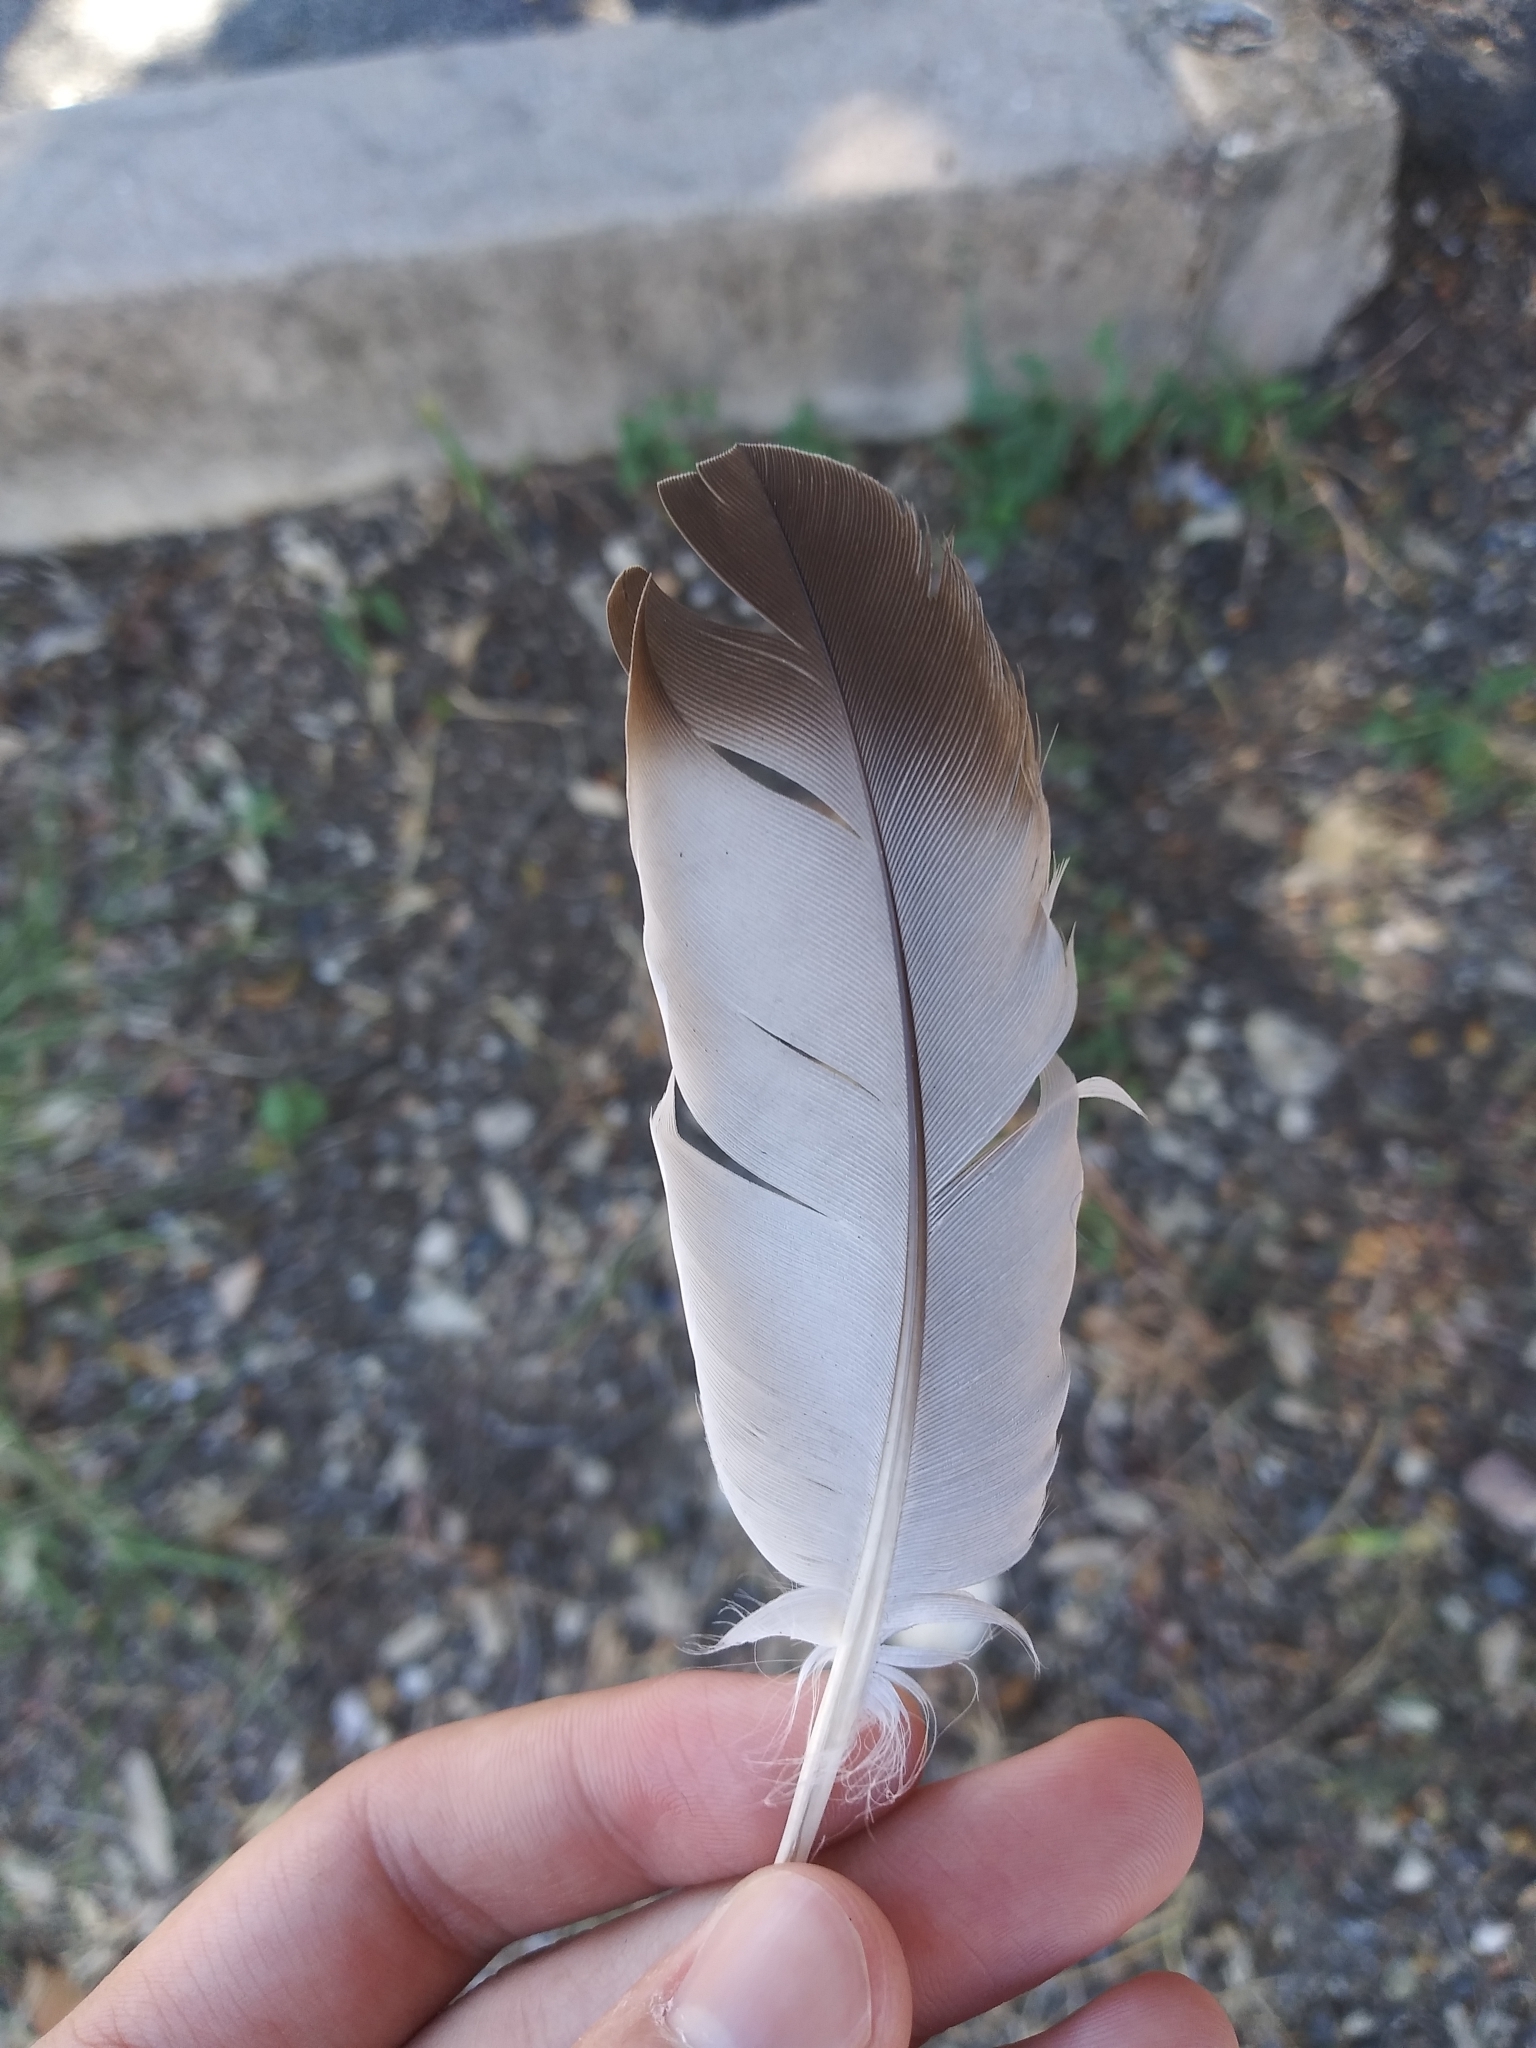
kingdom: Animalia
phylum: Chordata
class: Aves
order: Columbiformes
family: Columbidae
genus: Columba
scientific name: Columba livia
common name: Rock pigeon
